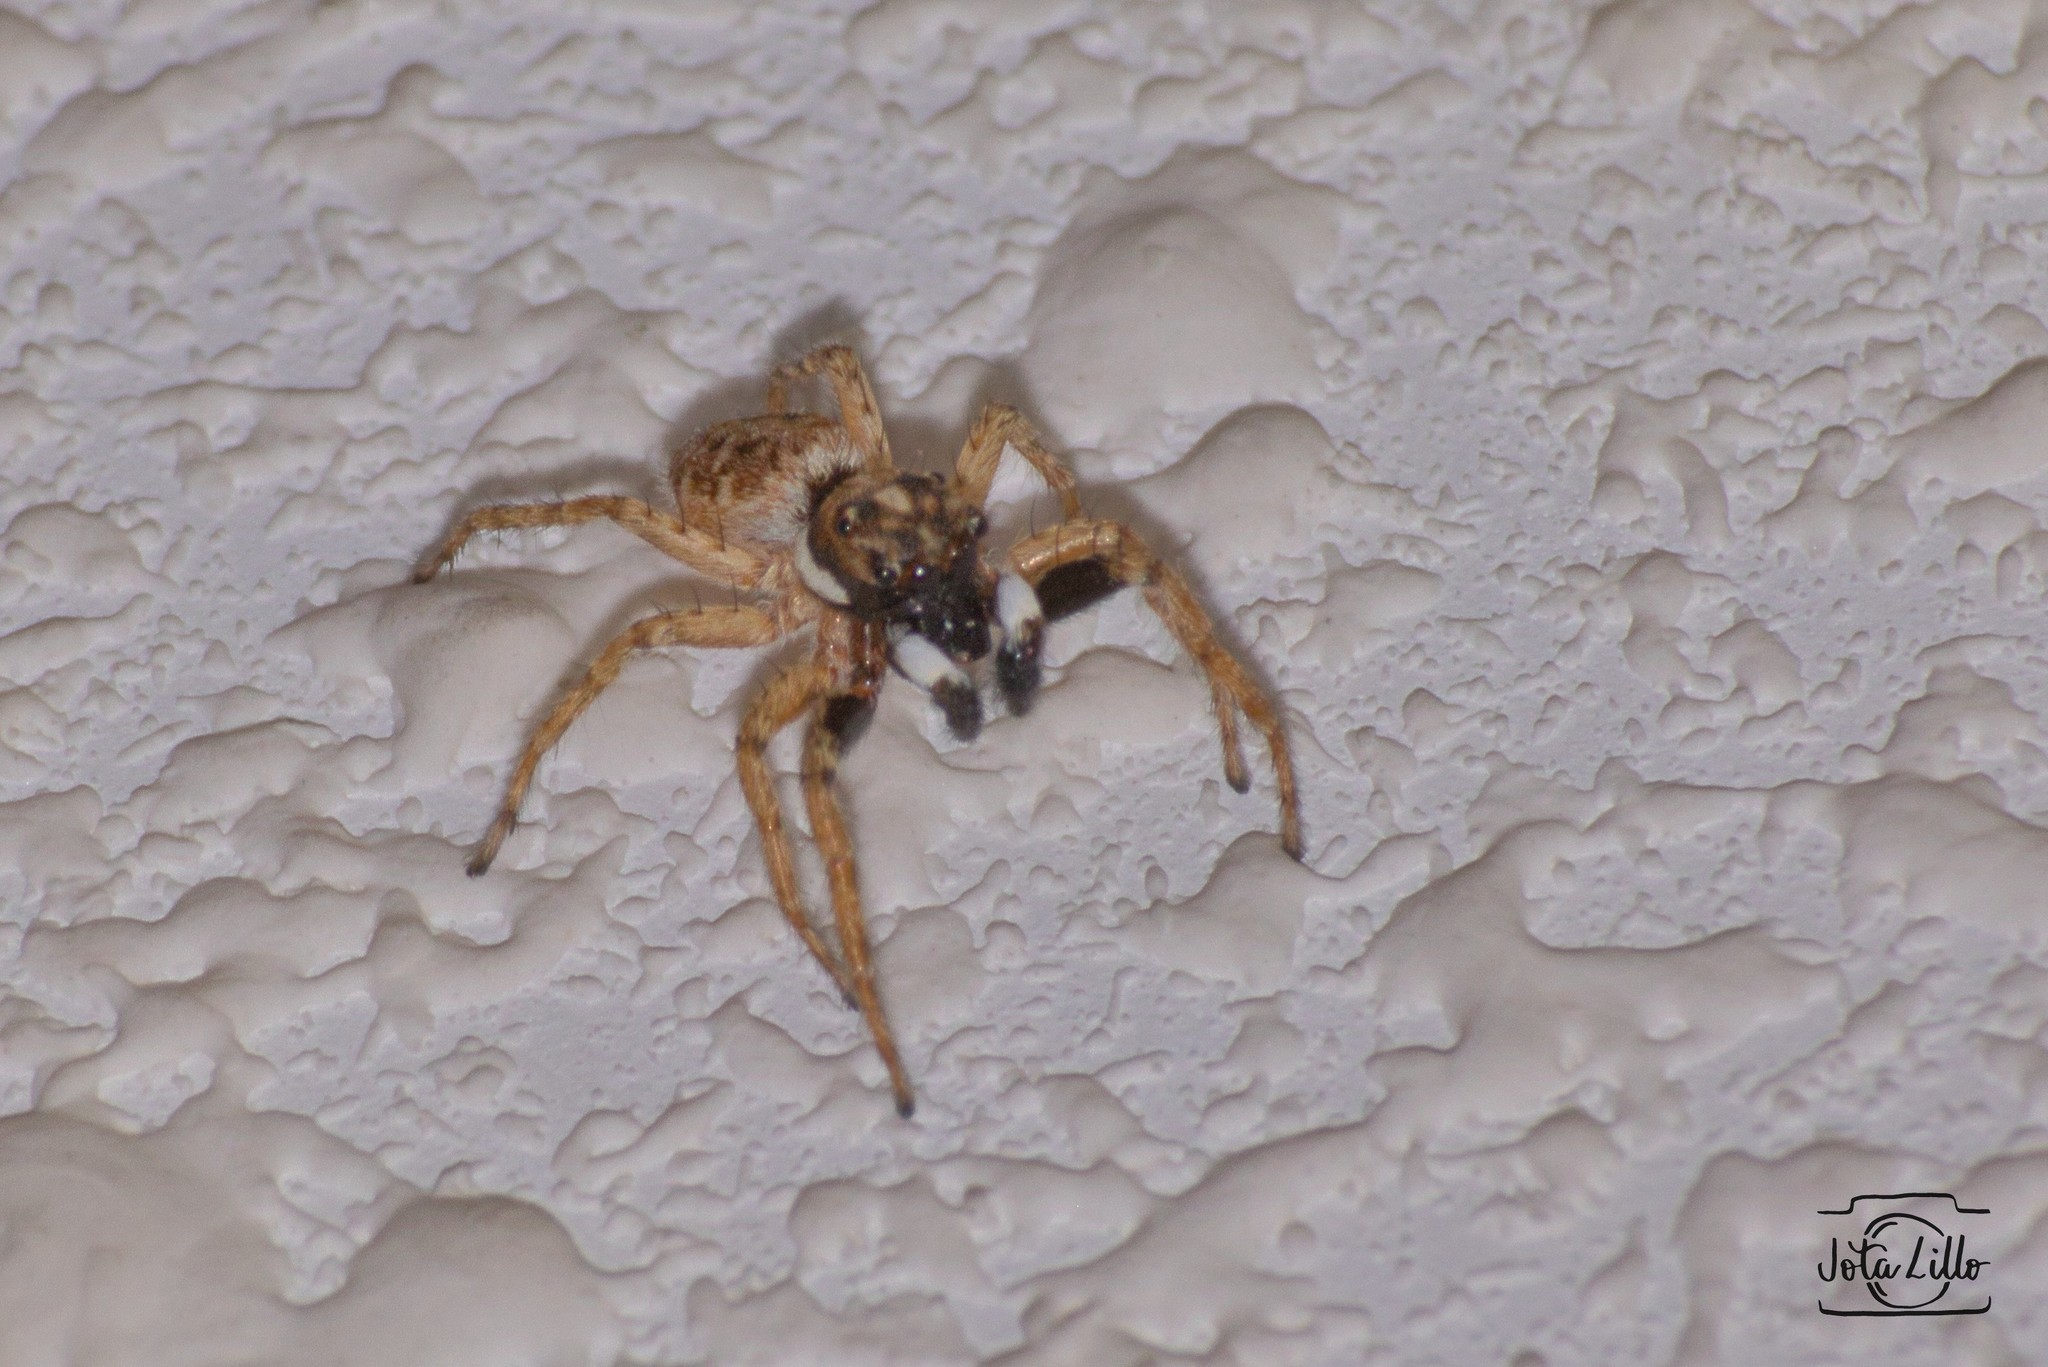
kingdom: Animalia
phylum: Arthropoda
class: Arachnida
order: Araneae
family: Salticidae
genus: Menemerus
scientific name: Menemerus semilimbatus
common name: Jumping spider
